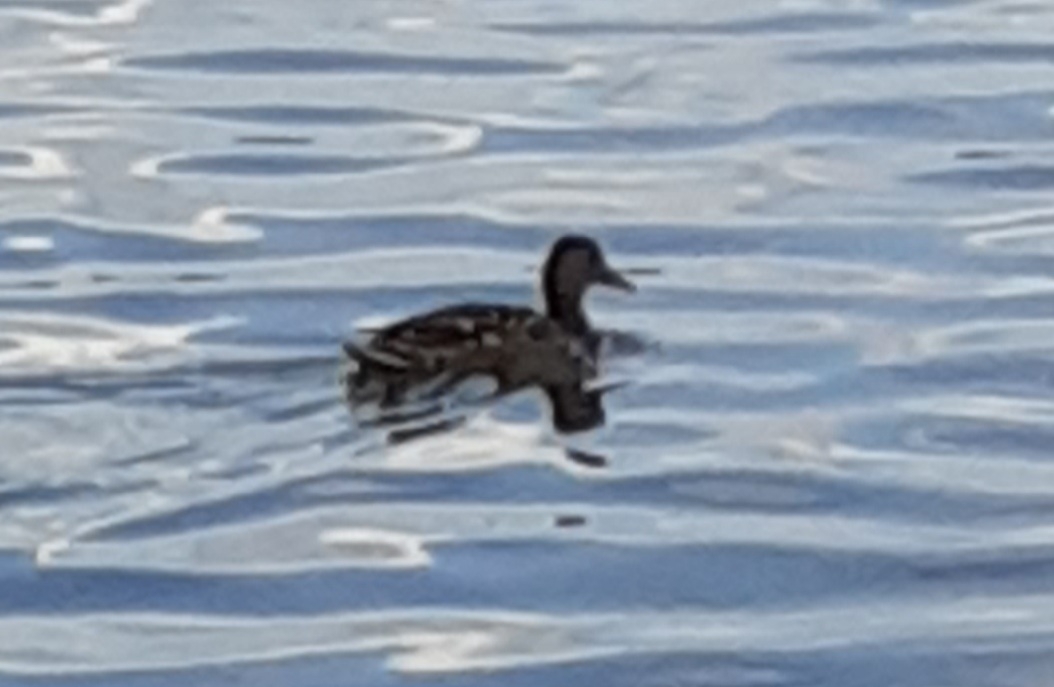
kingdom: Animalia
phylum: Chordata
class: Aves
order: Anseriformes
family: Anatidae
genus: Anas
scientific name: Anas platyrhynchos
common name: Mallard
